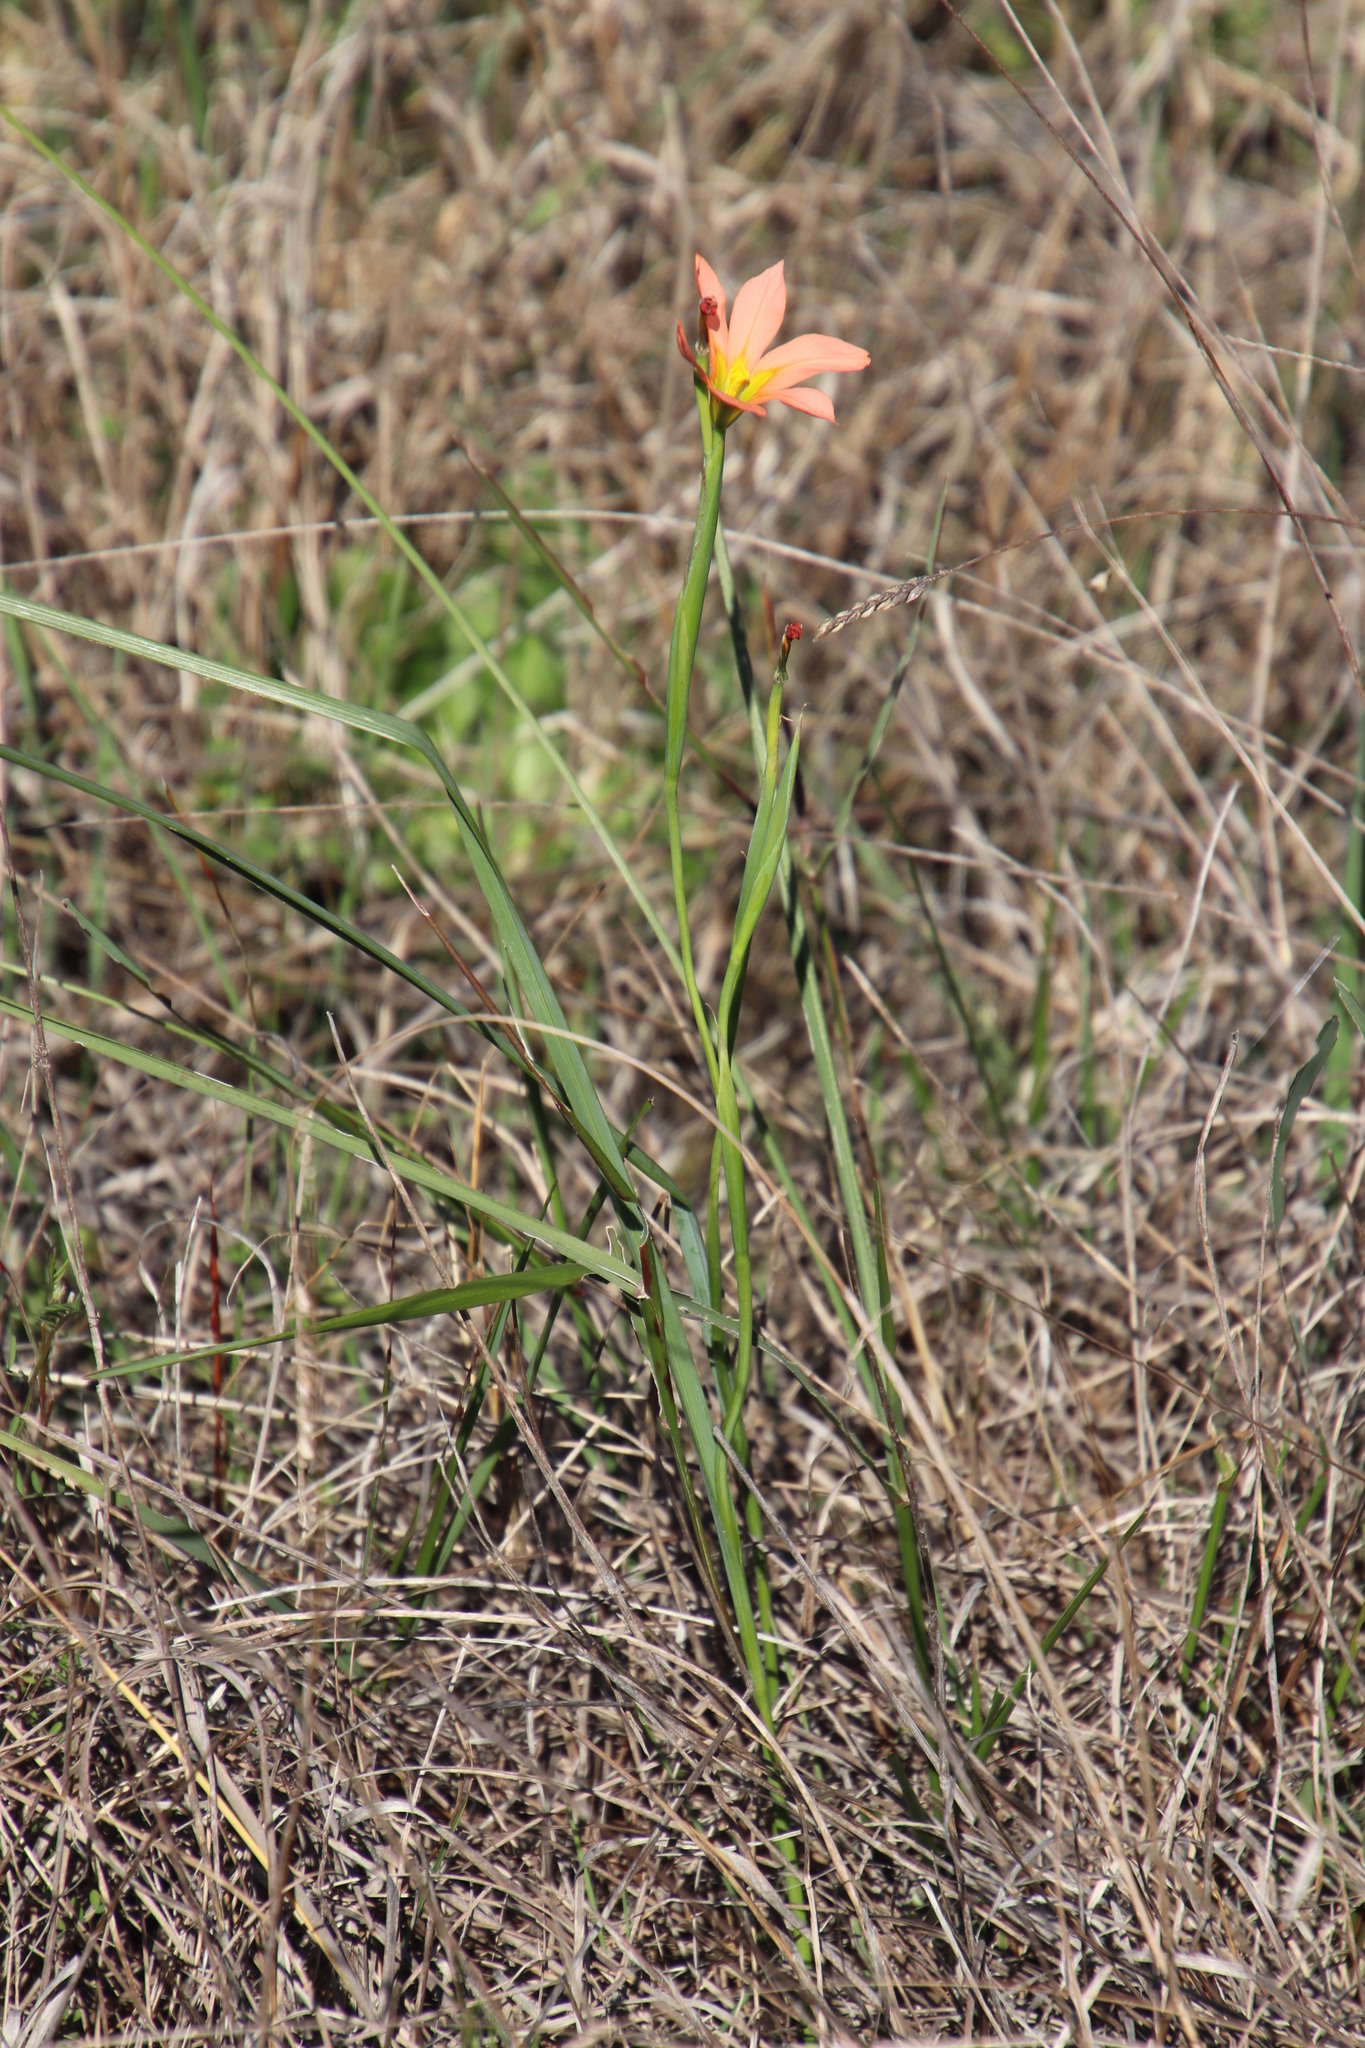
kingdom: Plantae
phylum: Tracheophyta
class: Liliopsida
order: Asparagales
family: Iridaceae
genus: Moraea
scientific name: Moraea flaccida
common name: One-leaf cape-tulip
